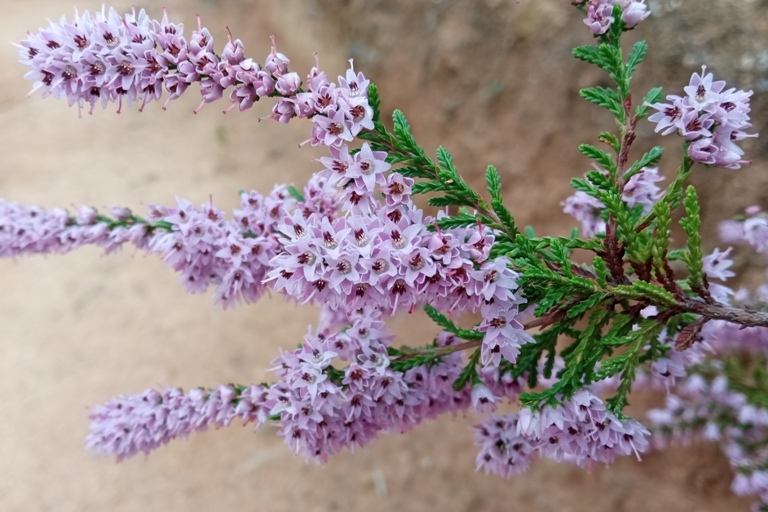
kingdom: Plantae
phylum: Tracheophyta
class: Magnoliopsida
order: Ericales
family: Ericaceae
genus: Calluna
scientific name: Calluna vulgaris
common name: Heather
